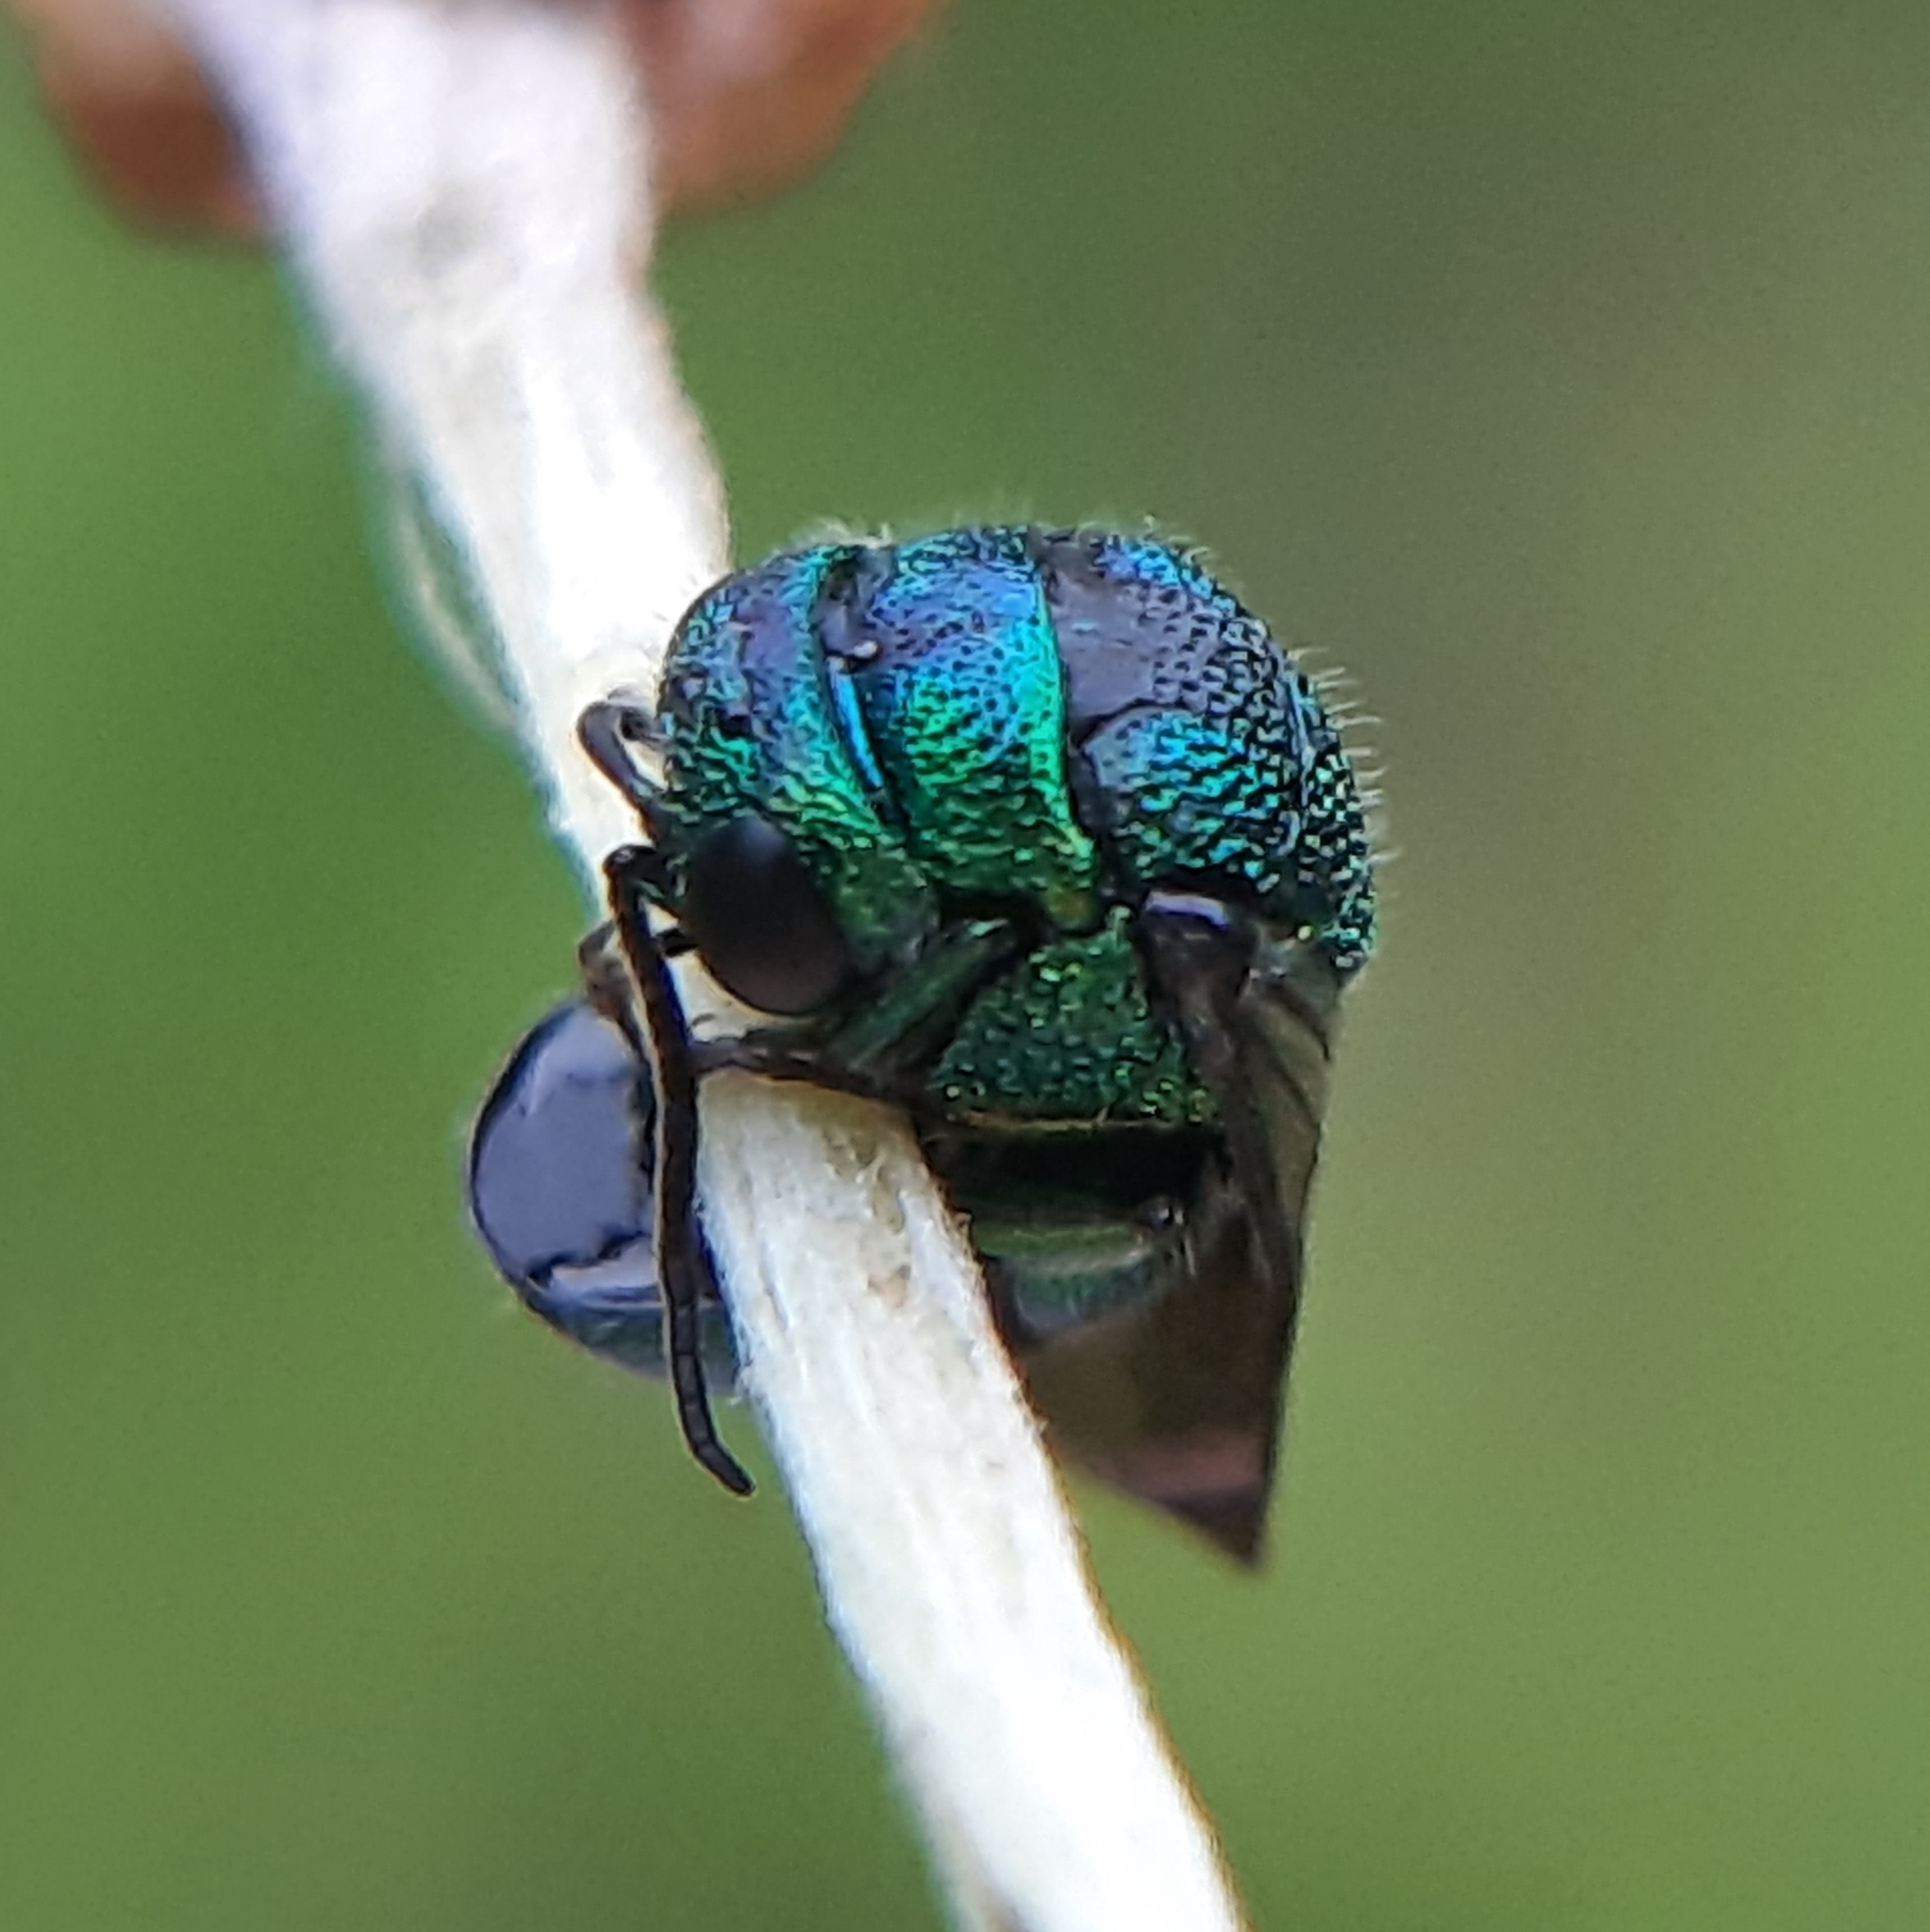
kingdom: Animalia
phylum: Arthropoda
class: Insecta
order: Hymenoptera
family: Chrysididae
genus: Holopyga
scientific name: Holopyga
